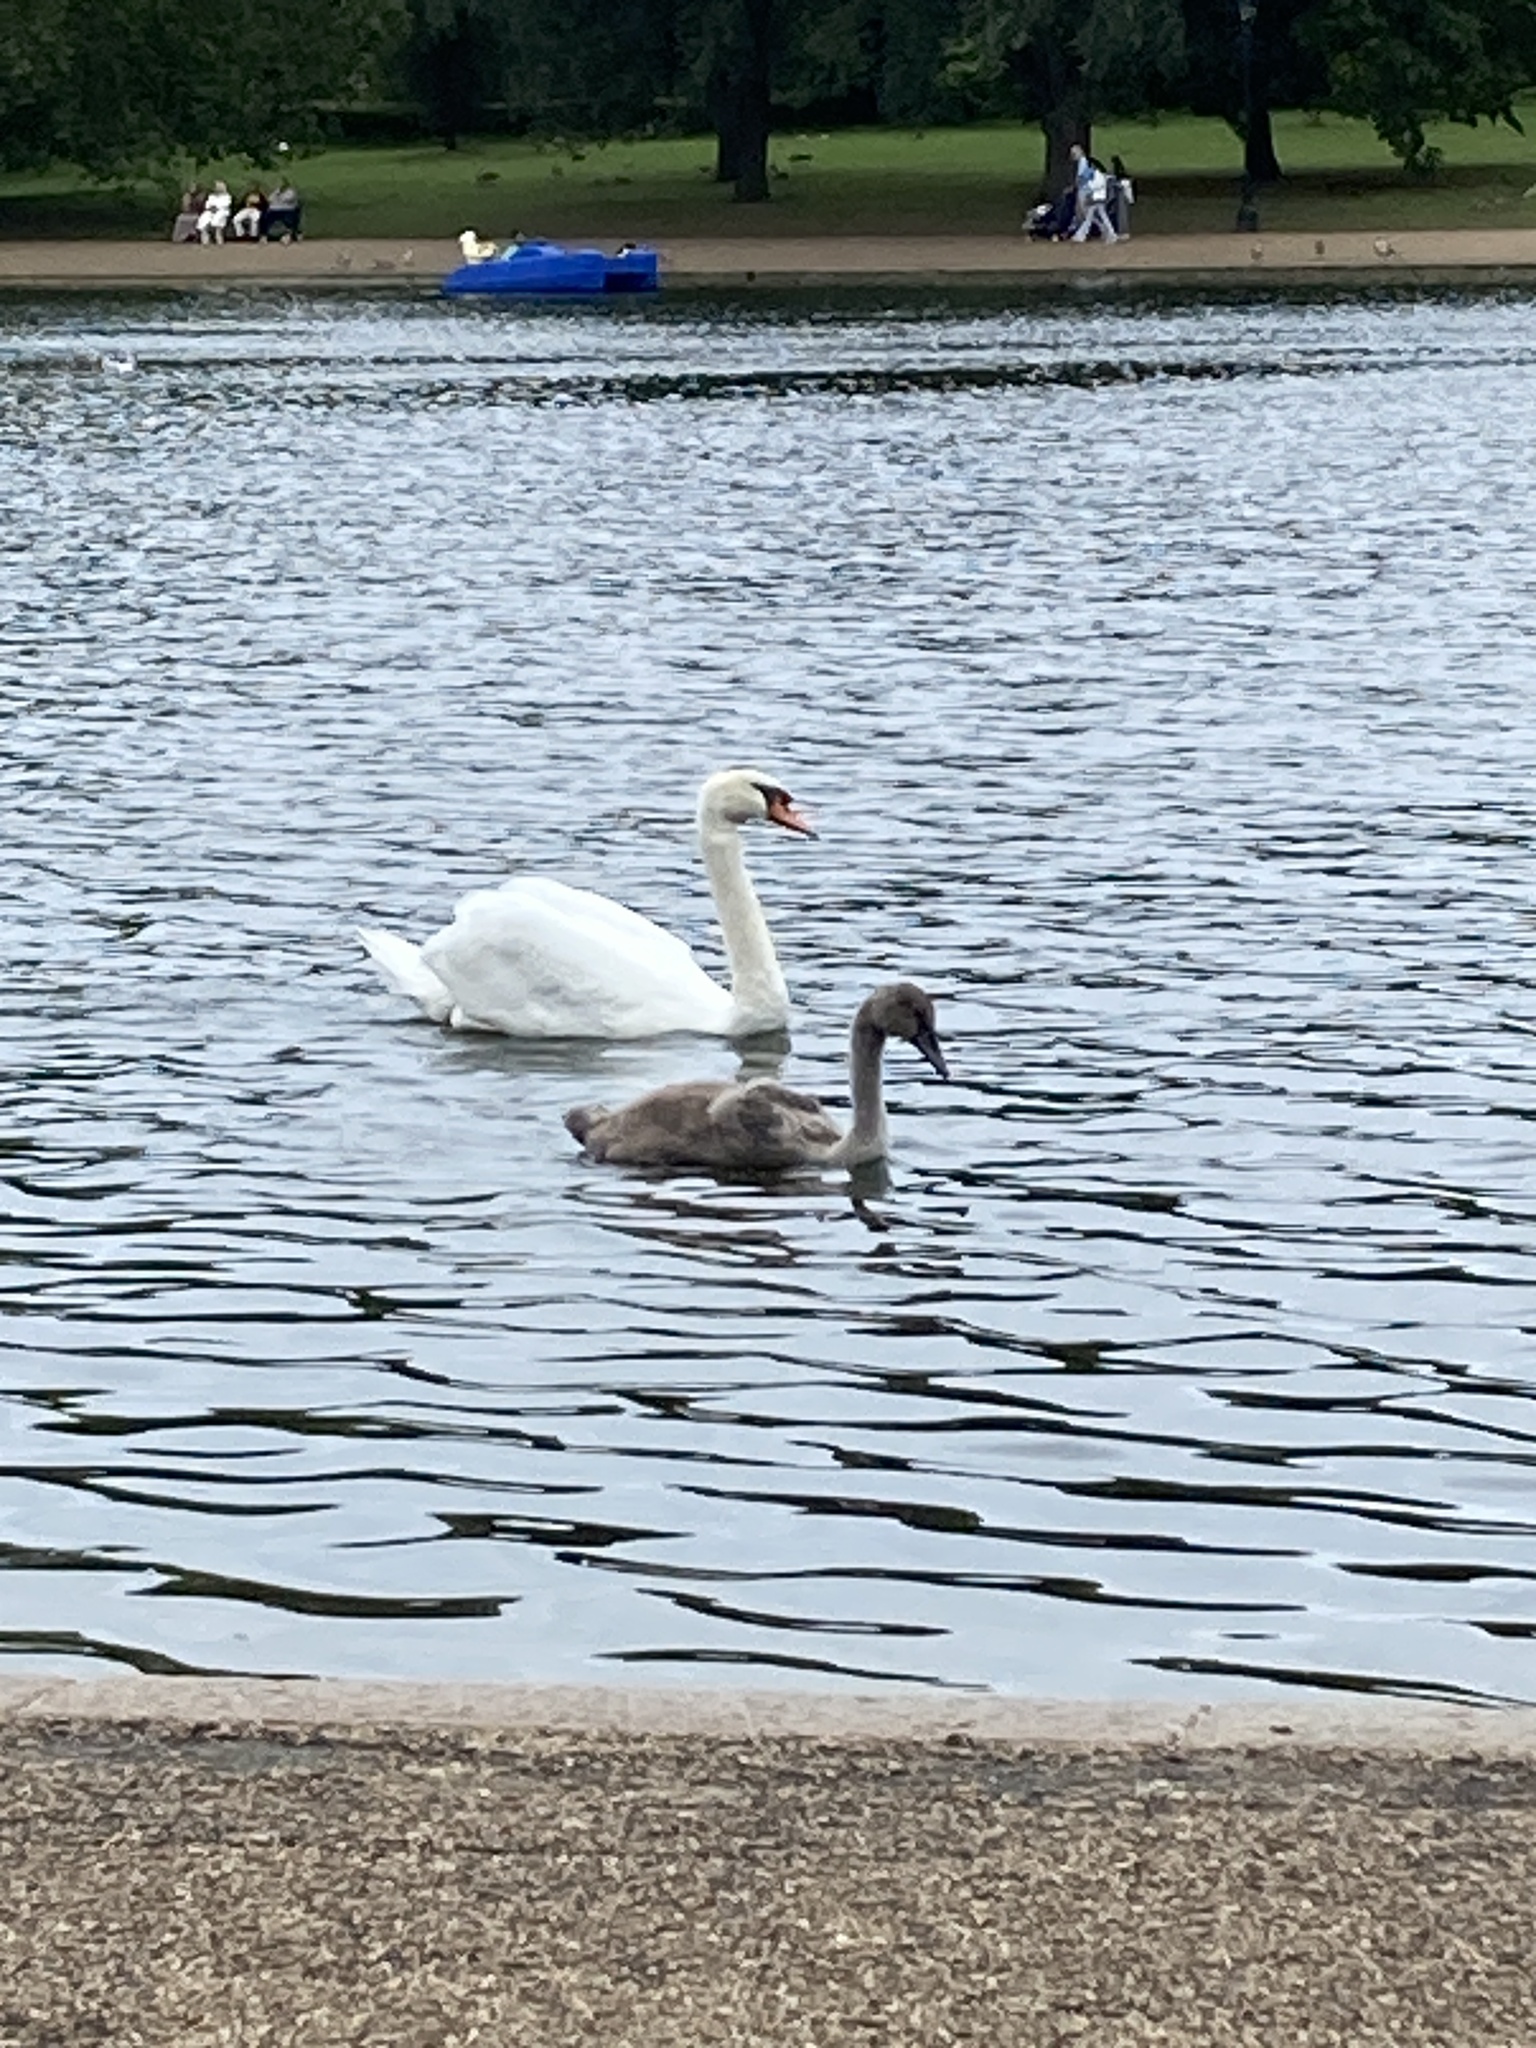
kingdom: Animalia
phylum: Chordata
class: Aves
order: Anseriformes
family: Anatidae
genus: Cygnus
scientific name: Cygnus olor
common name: Mute swan
